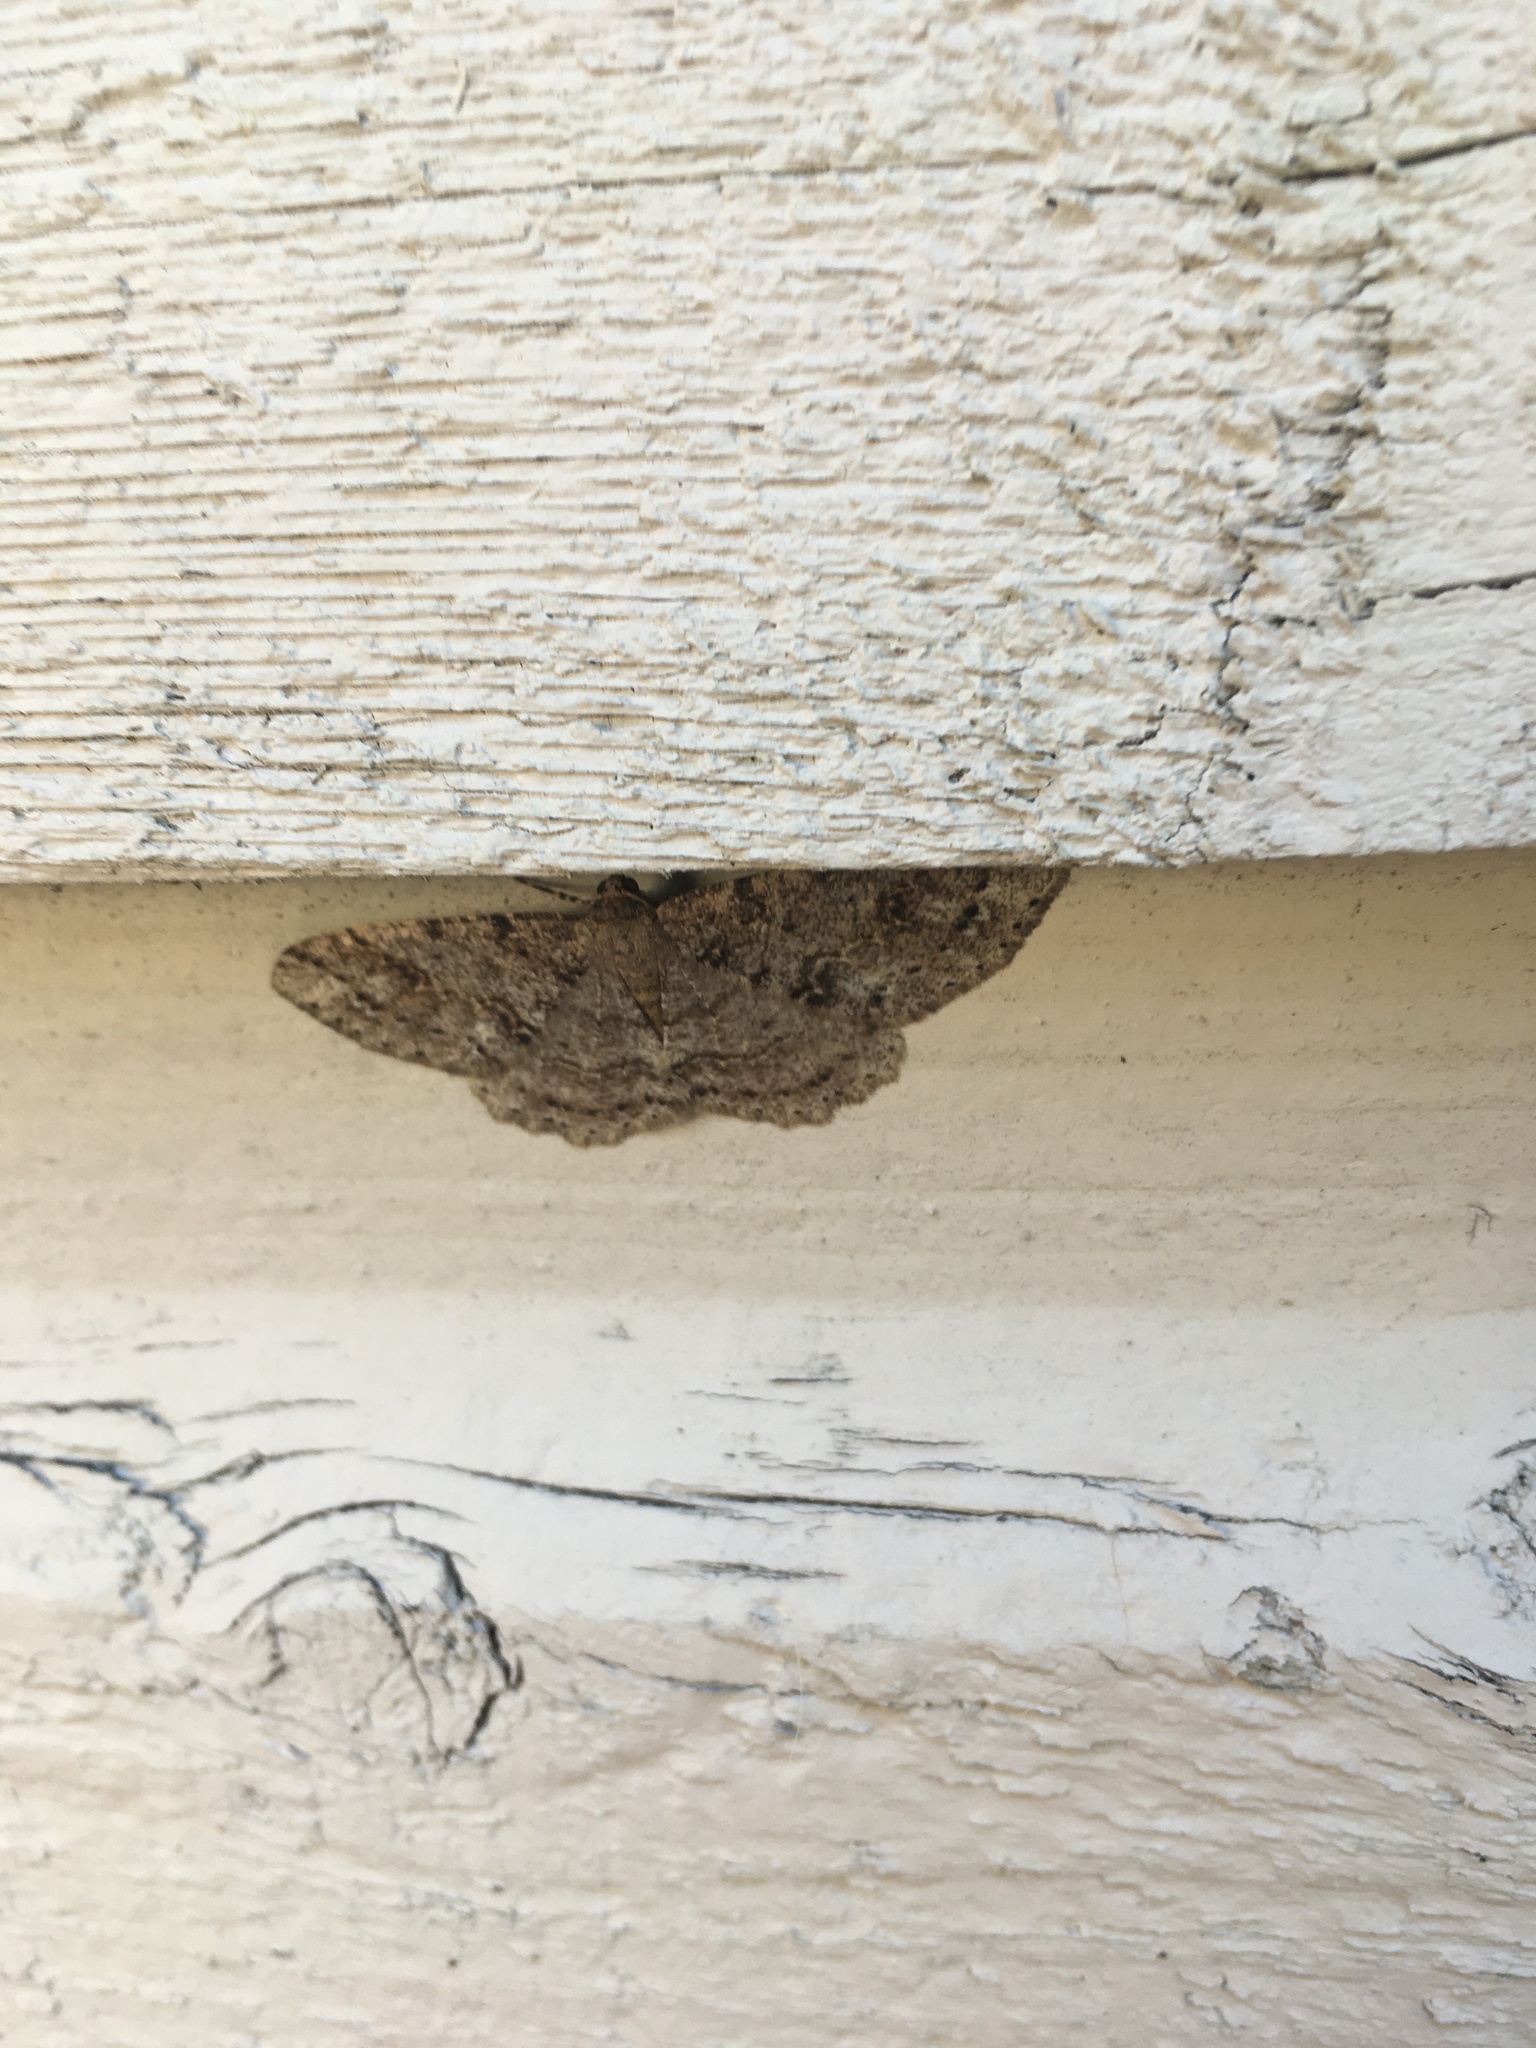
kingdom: Animalia
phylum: Arthropoda
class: Insecta
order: Lepidoptera
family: Geometridae
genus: Melanolophia
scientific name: Melanolophia imitata
